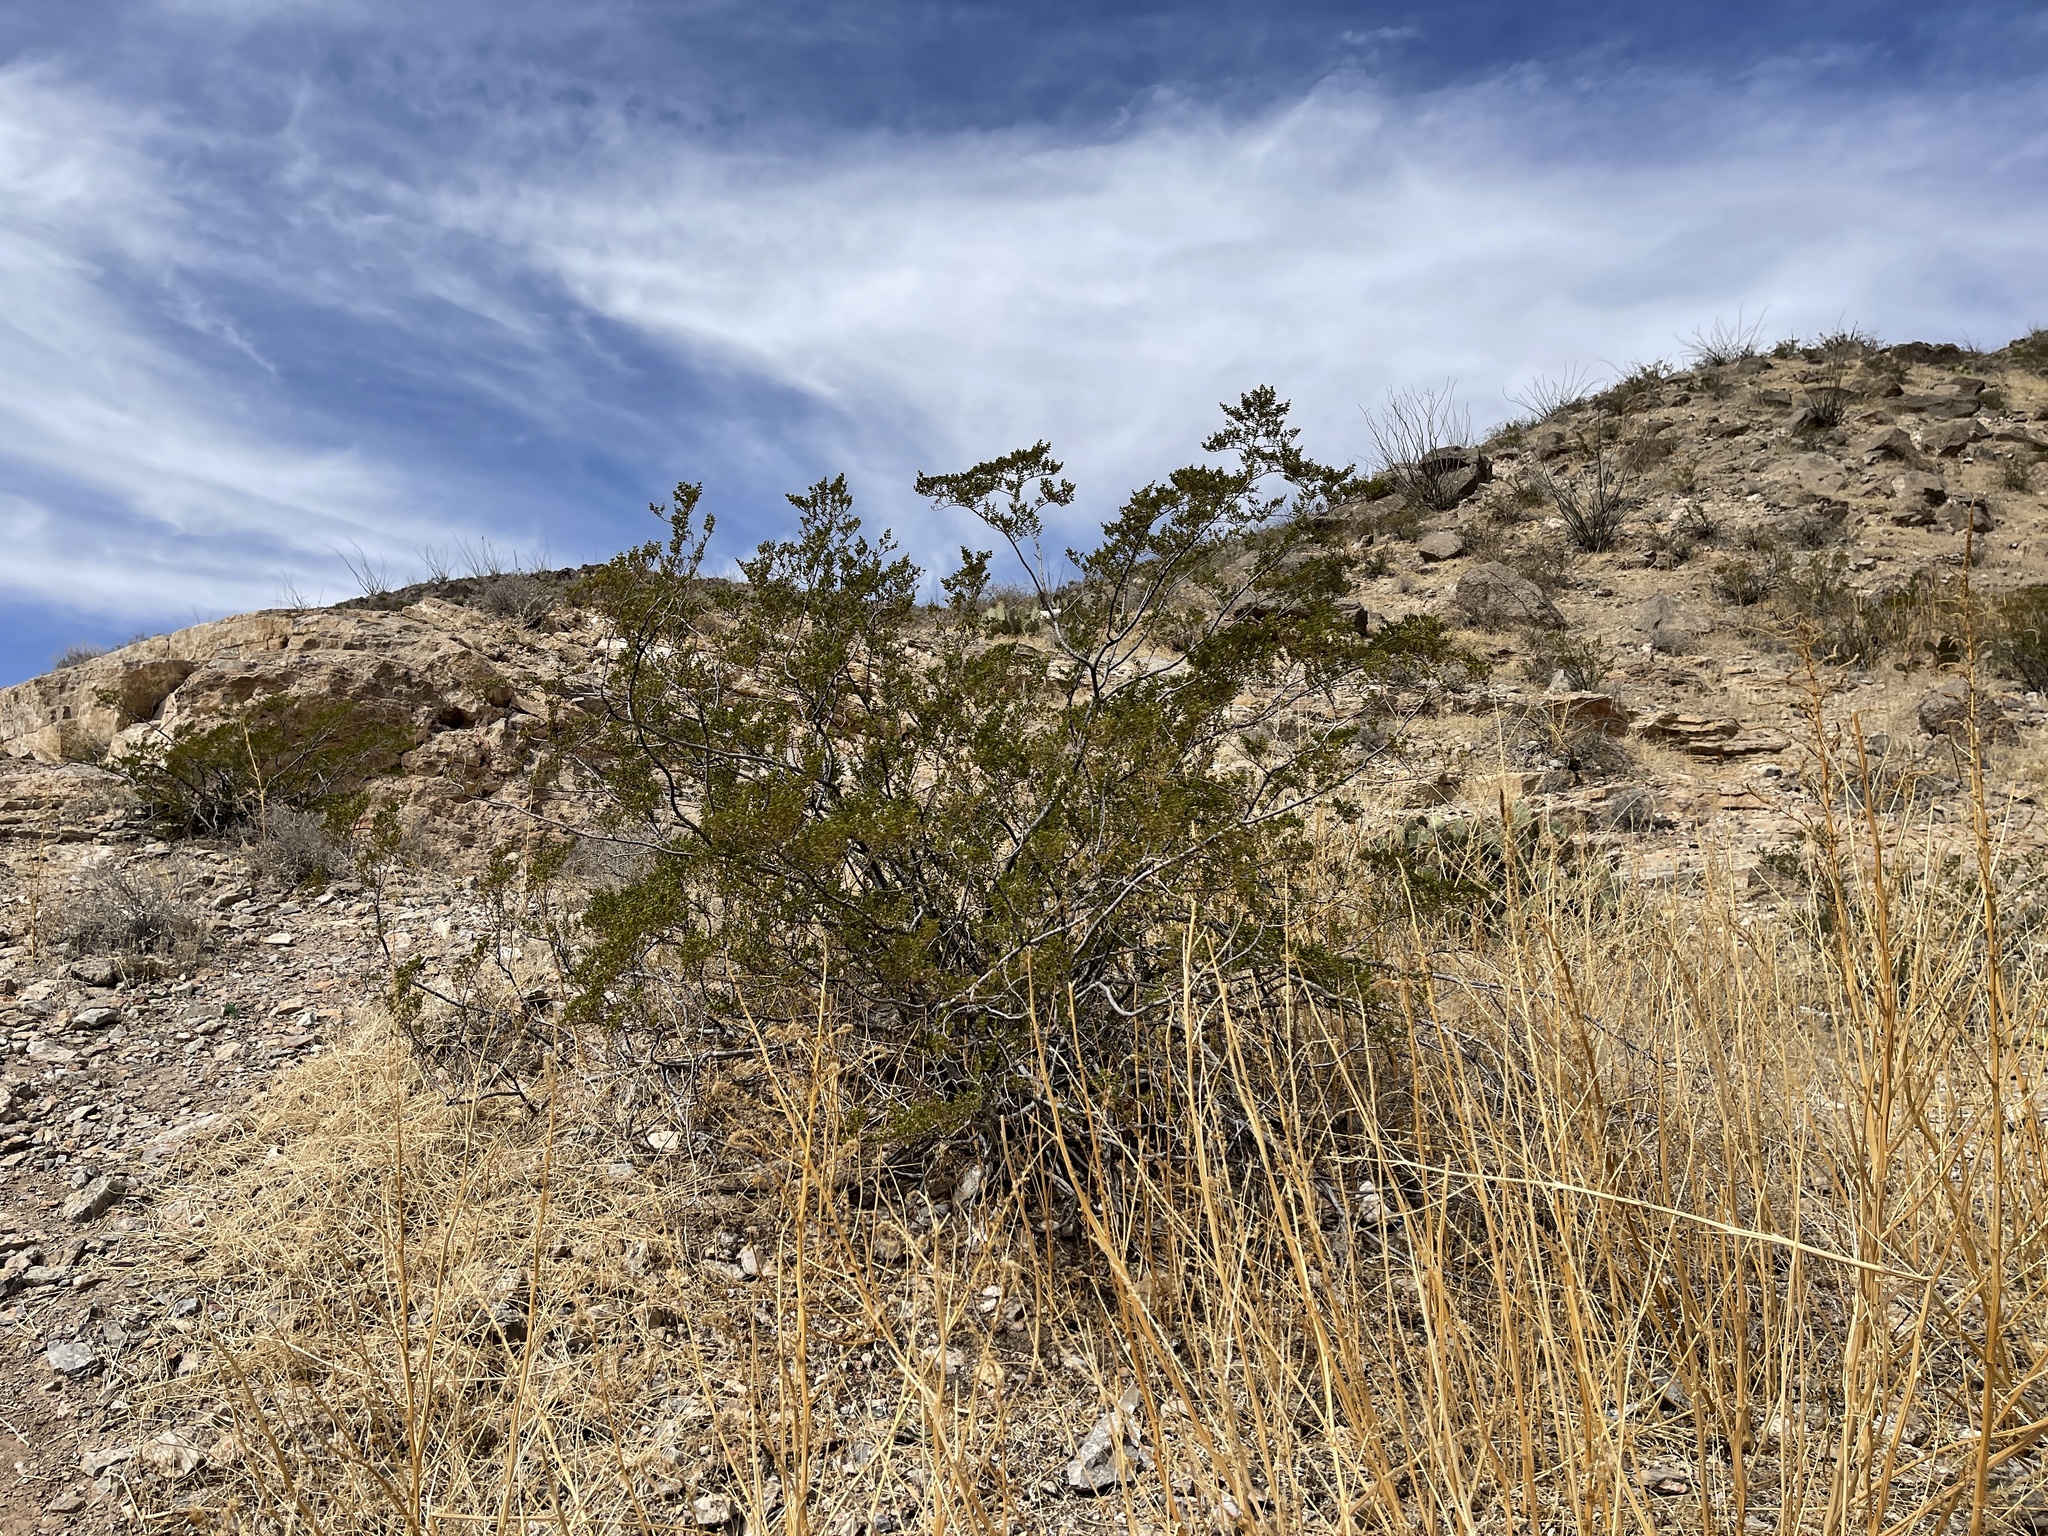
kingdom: Plantae
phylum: Tracheophyta
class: Magnoliopsida
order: Zygophyllales
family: Zygophyllaceae
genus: Larrea
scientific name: Larrea tridentata
